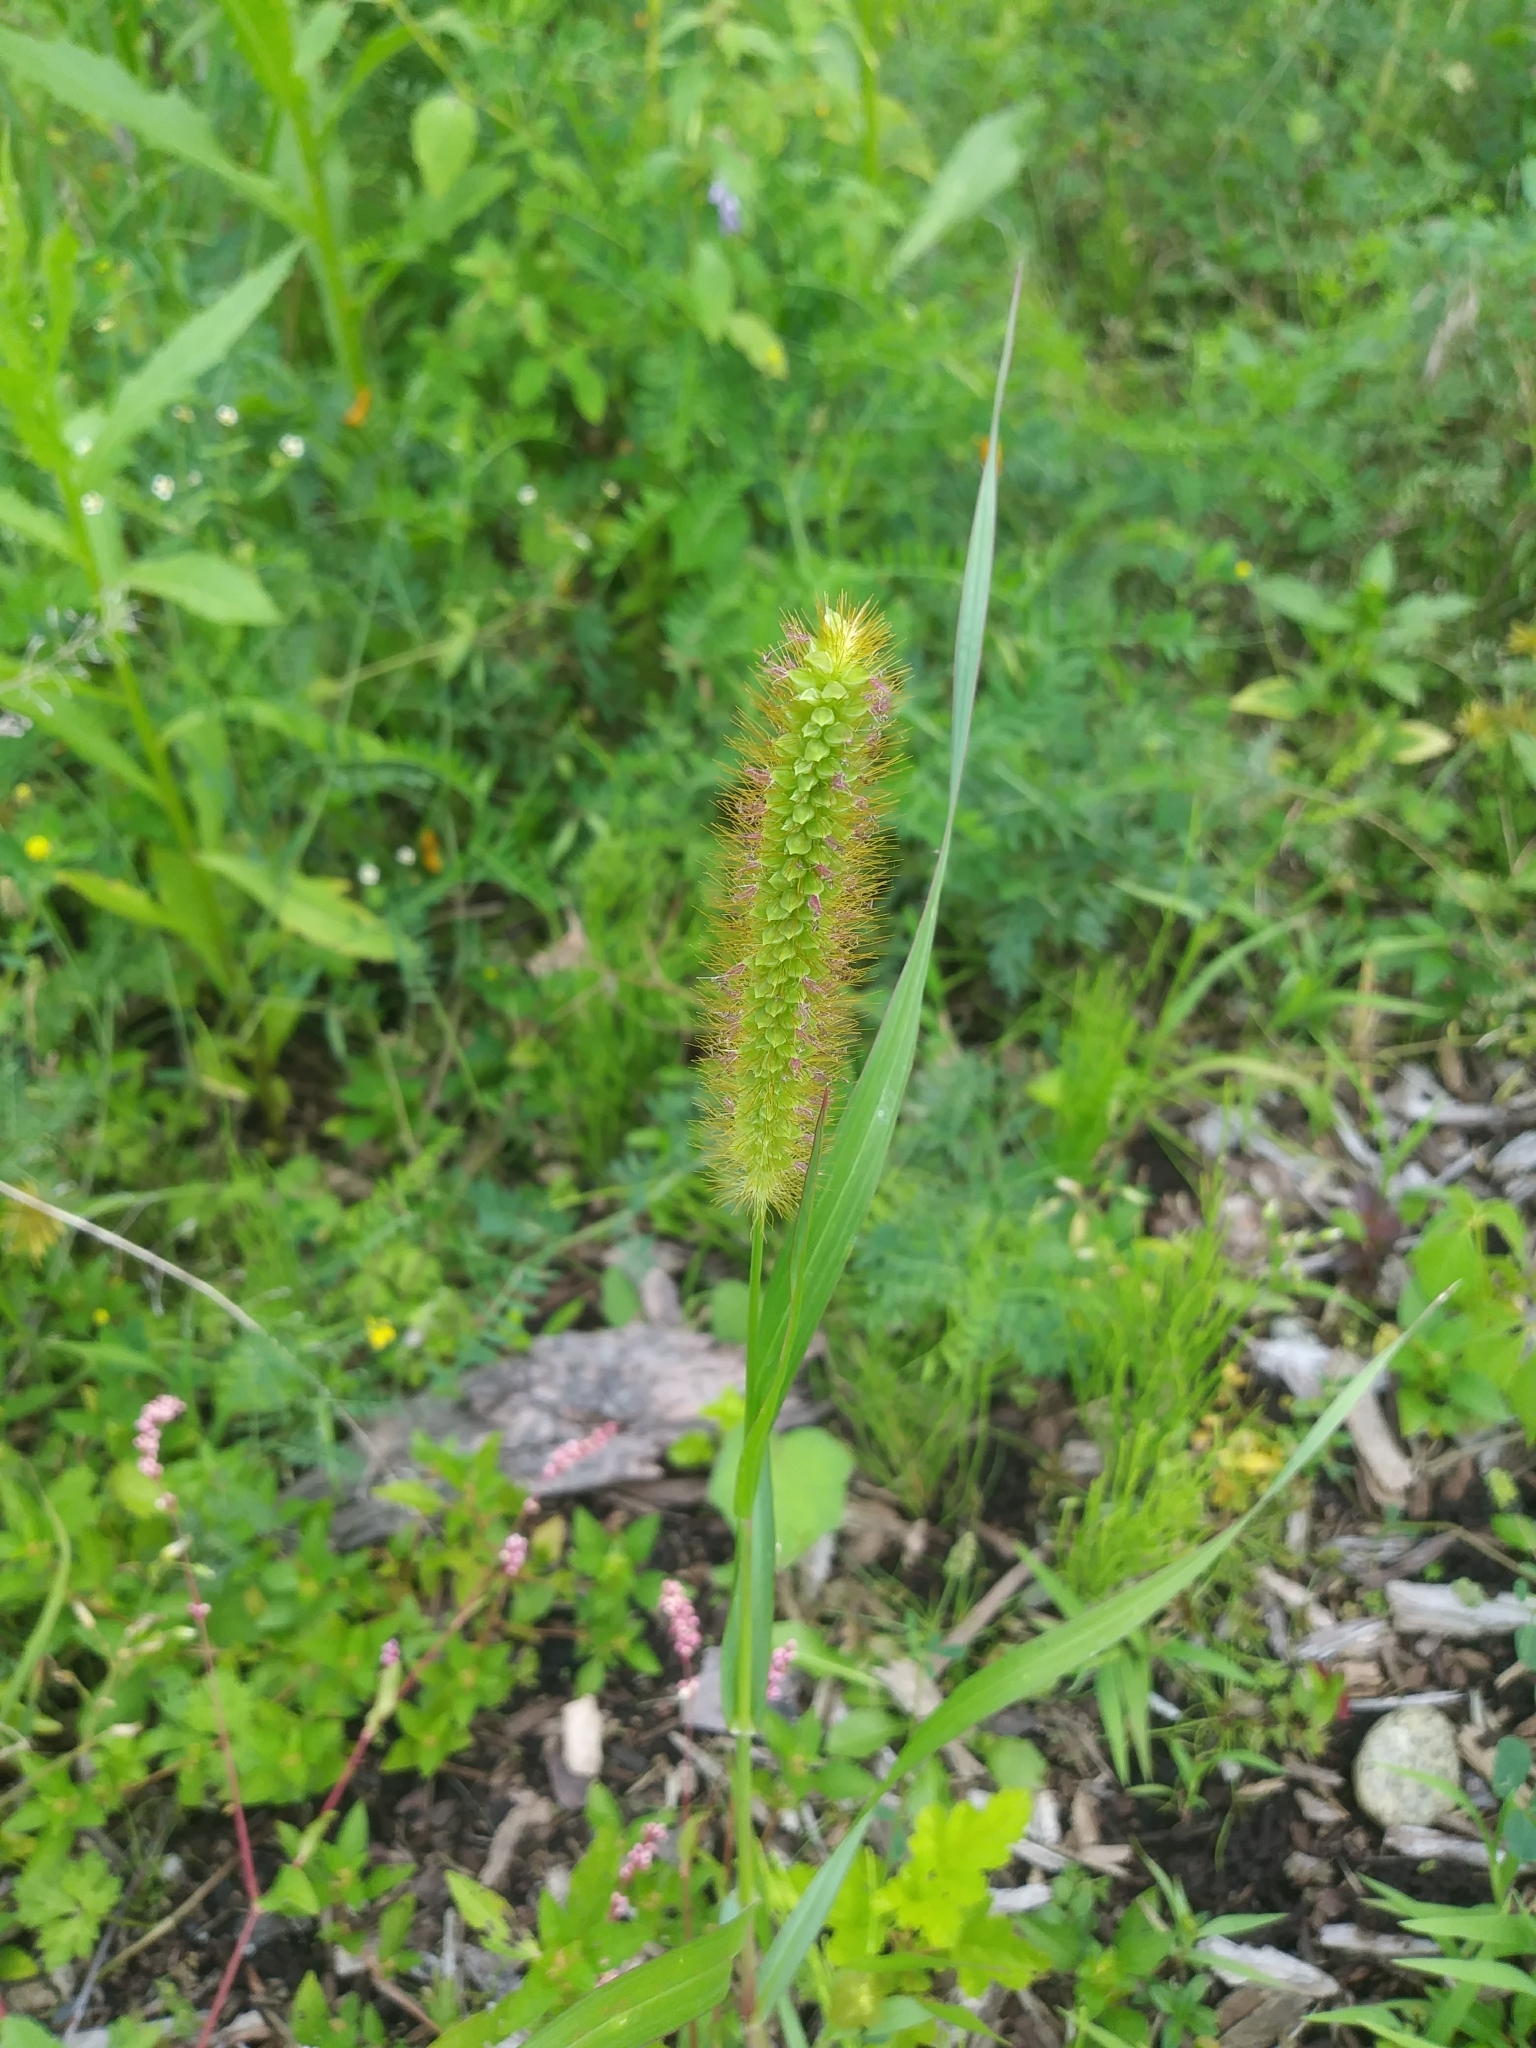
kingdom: Plantae
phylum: Tracheophyta
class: Liliopsida
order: Poales
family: Poaceae
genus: Setaria
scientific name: Setaria pumila
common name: Yellow bristle-grass
